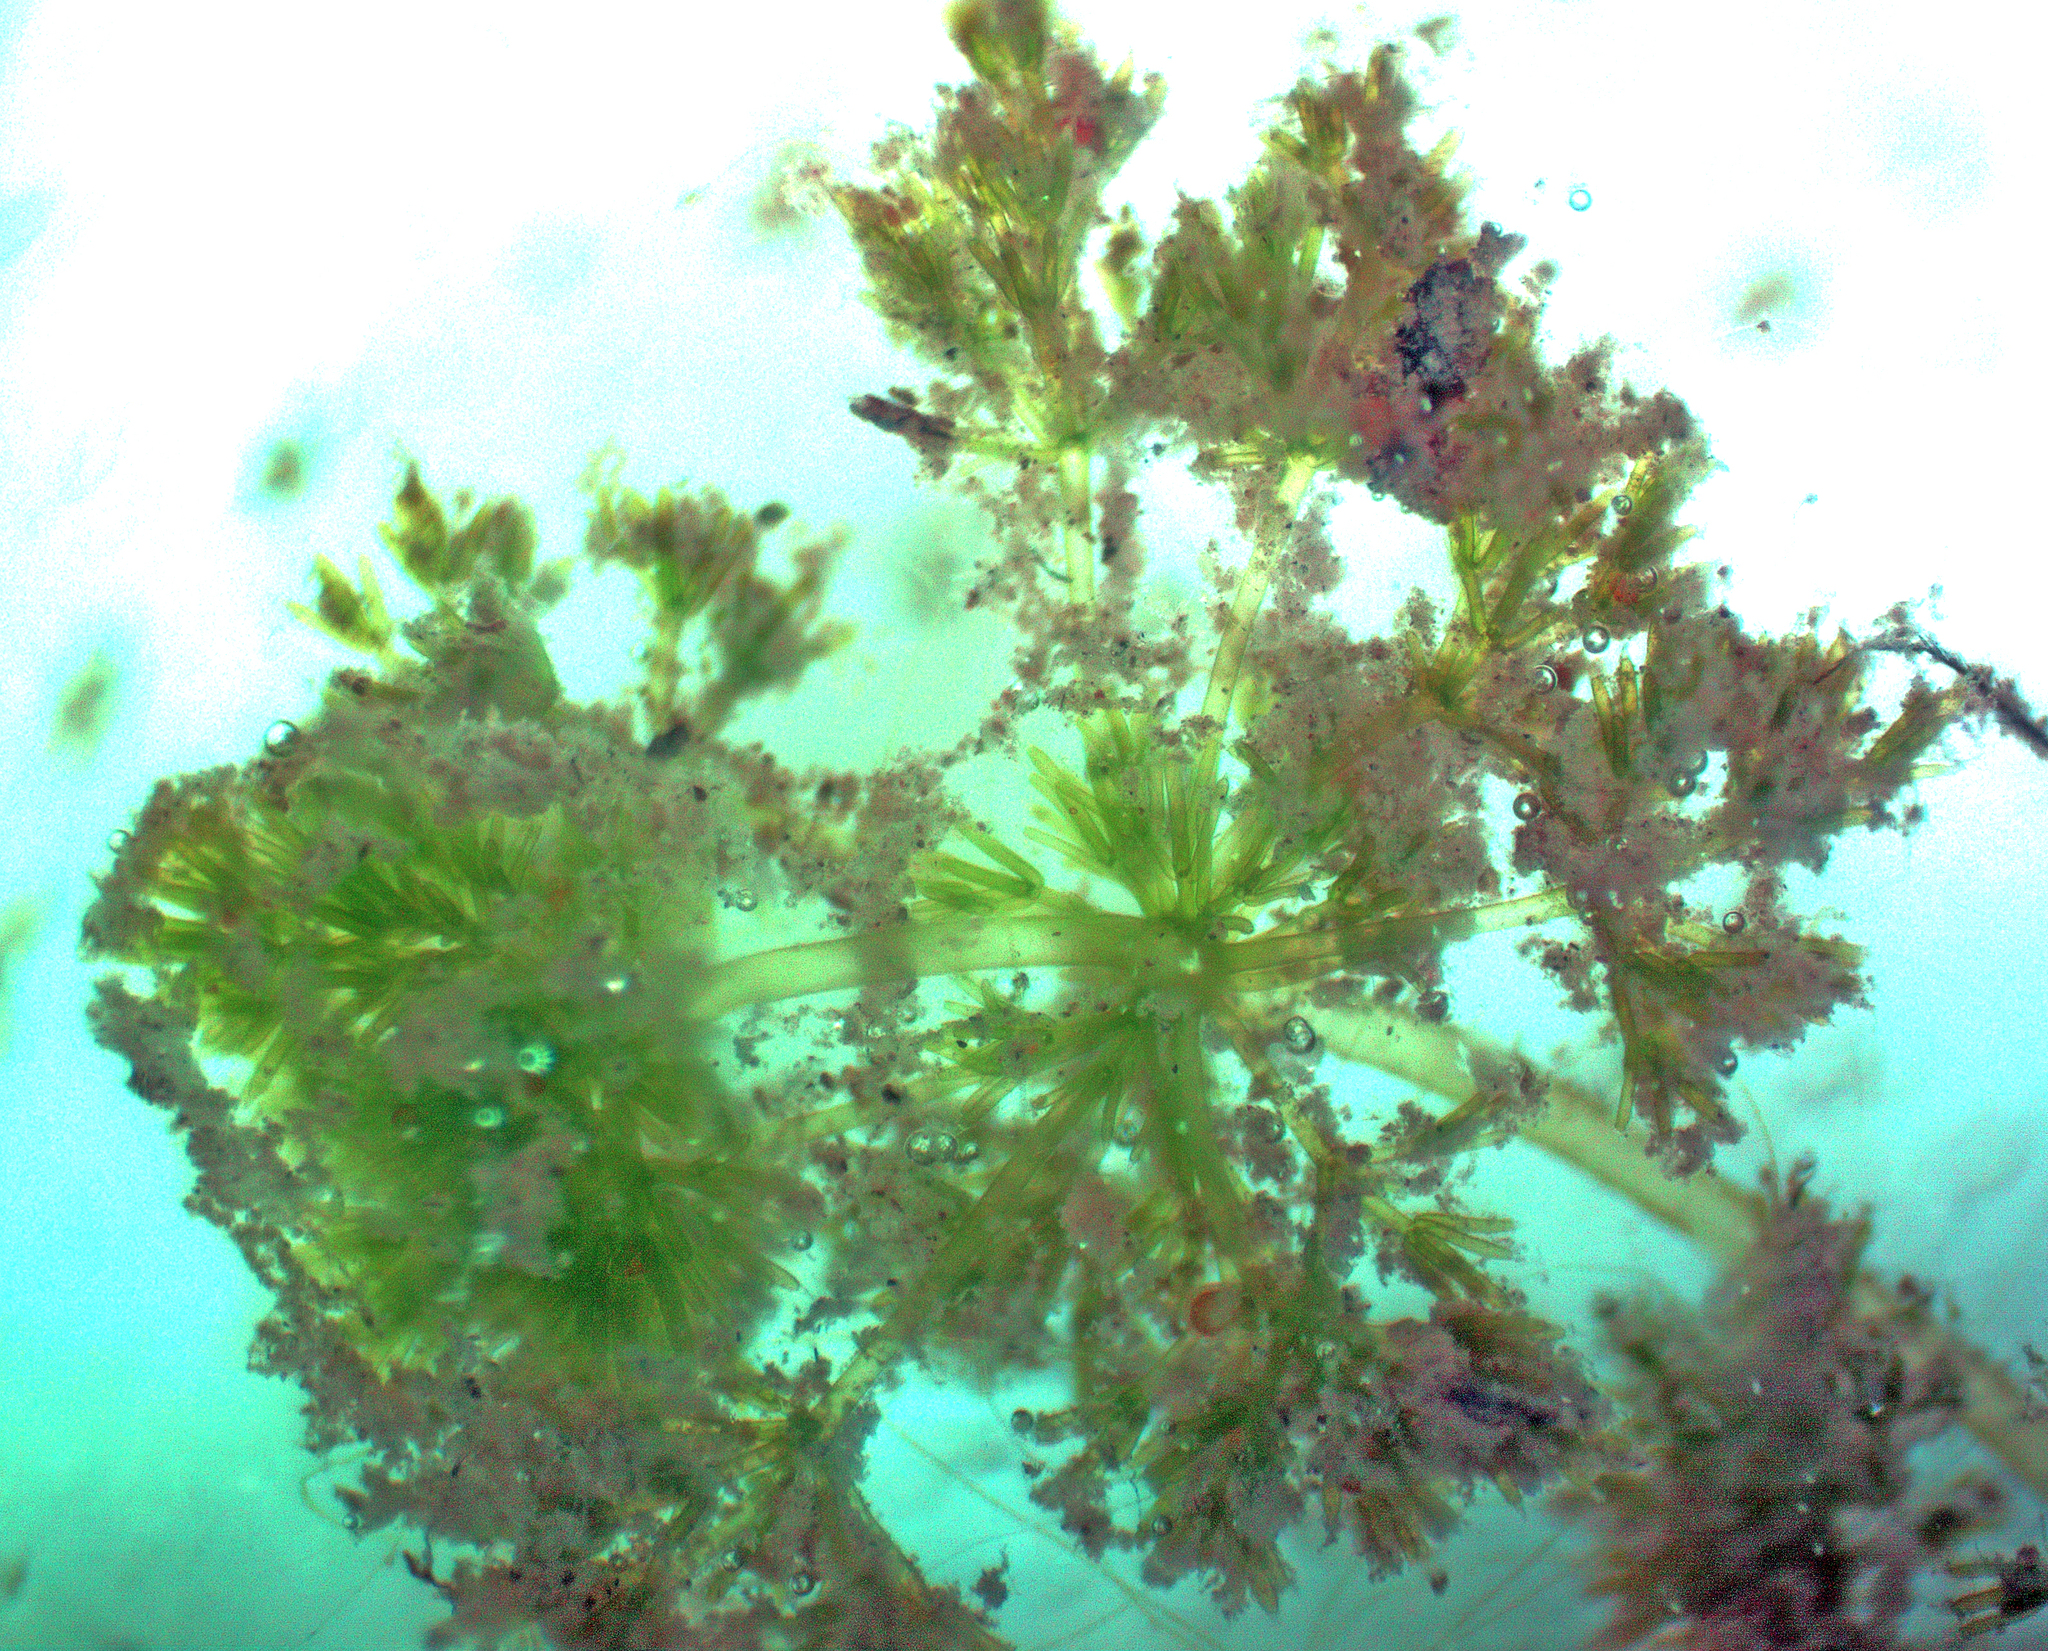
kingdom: Plantae
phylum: Charophyta
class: Charophyceae
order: Charales
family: Characeae
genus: Nitella
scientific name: Nitella hyalina
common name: Many-branched stonewort
